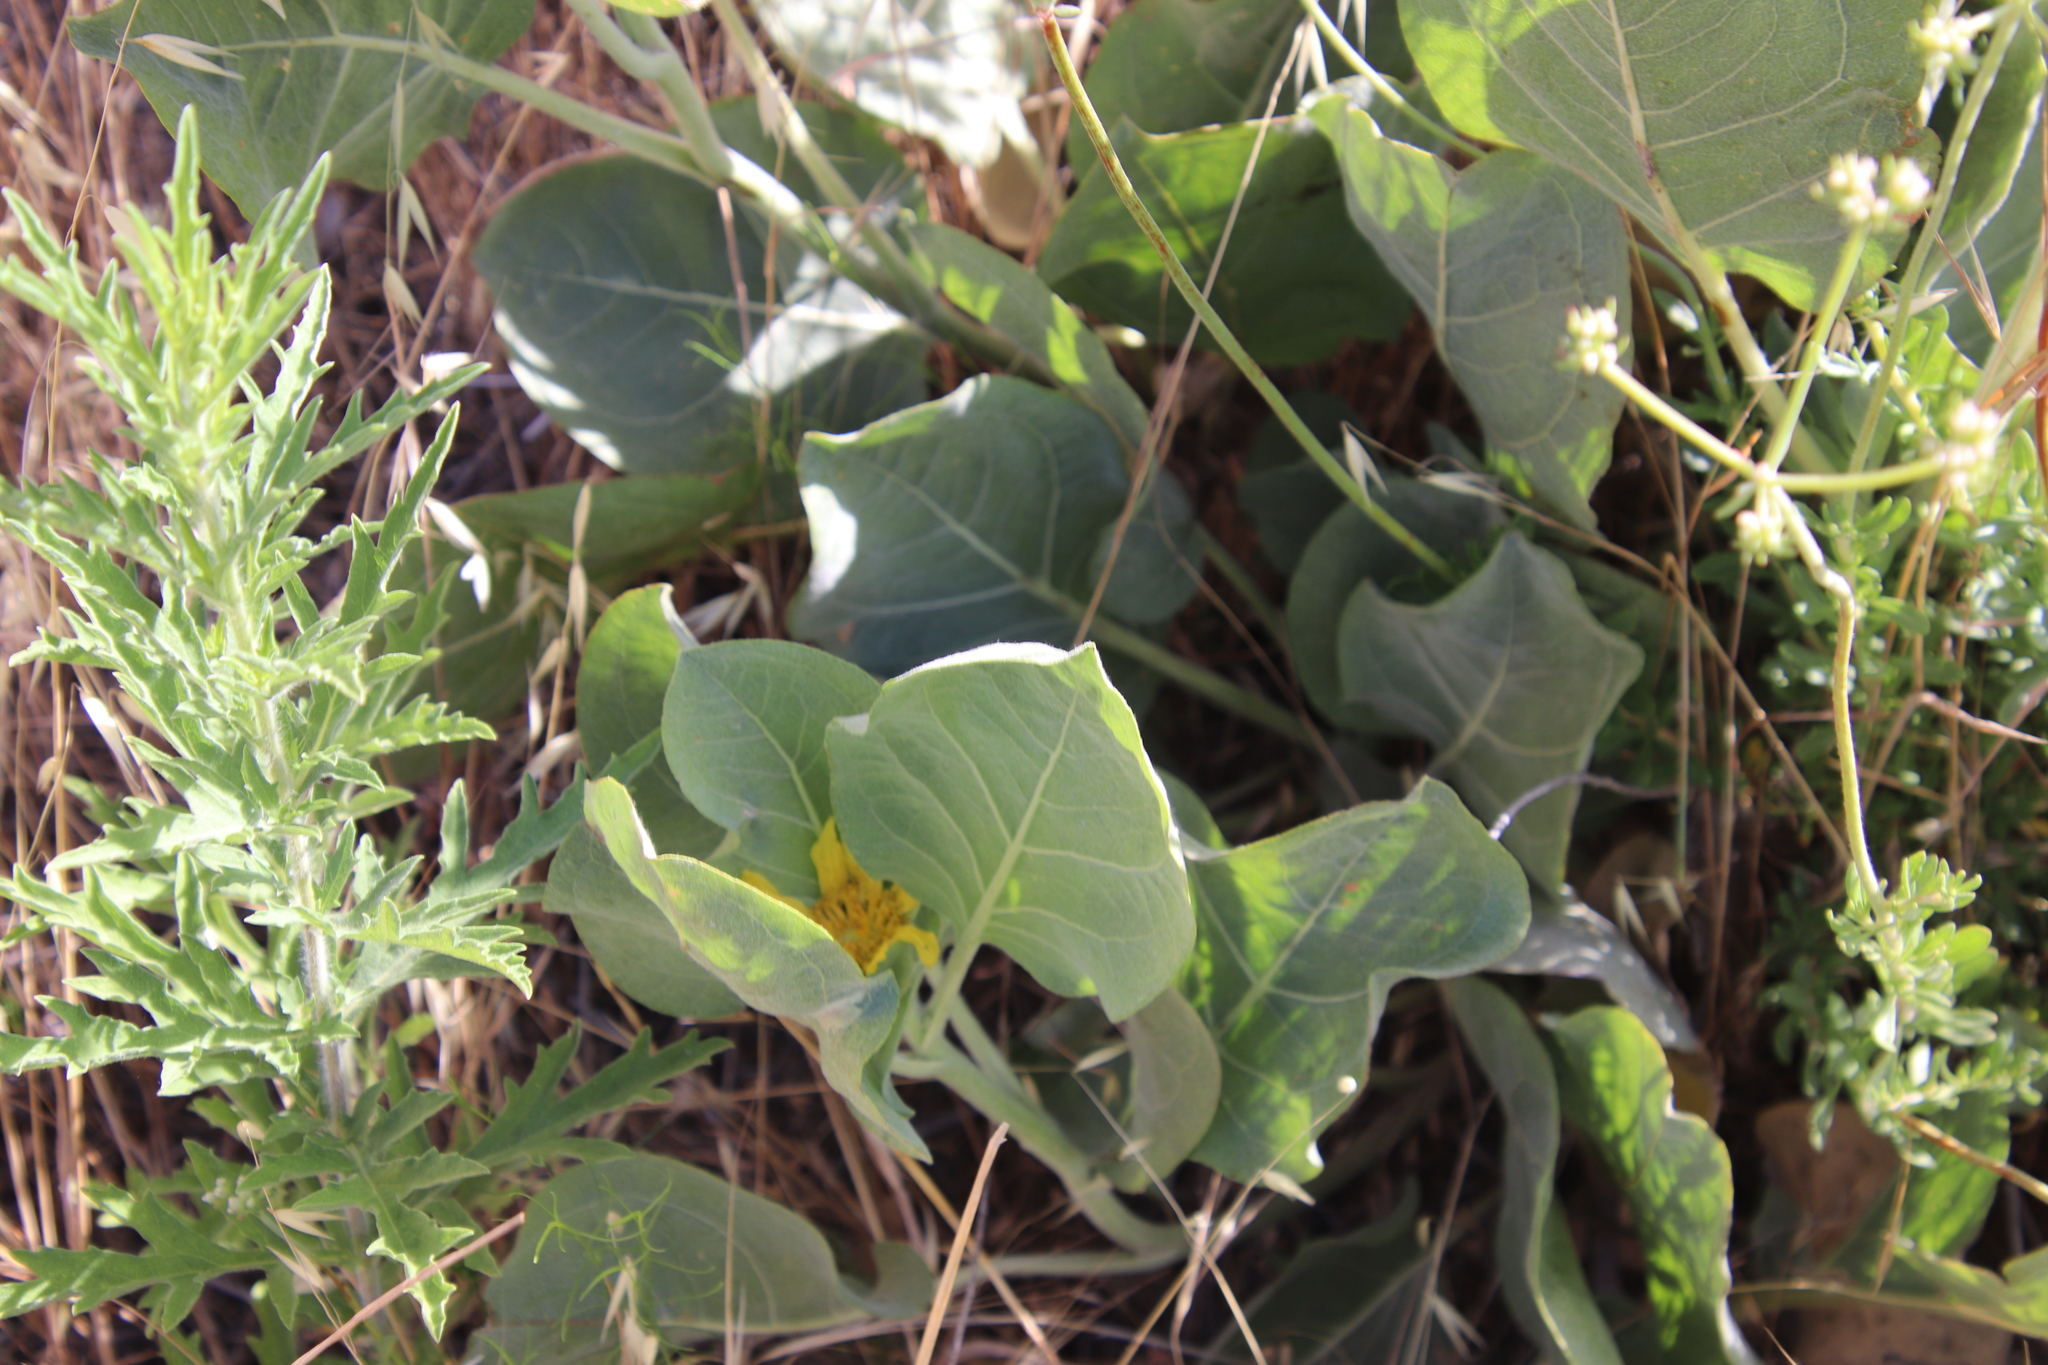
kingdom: Plantae
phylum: Tracheophyta
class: Magnoliopsida
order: Asterales
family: Asteraceae
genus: Agnorhiza
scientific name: Agnorhiza ovata
